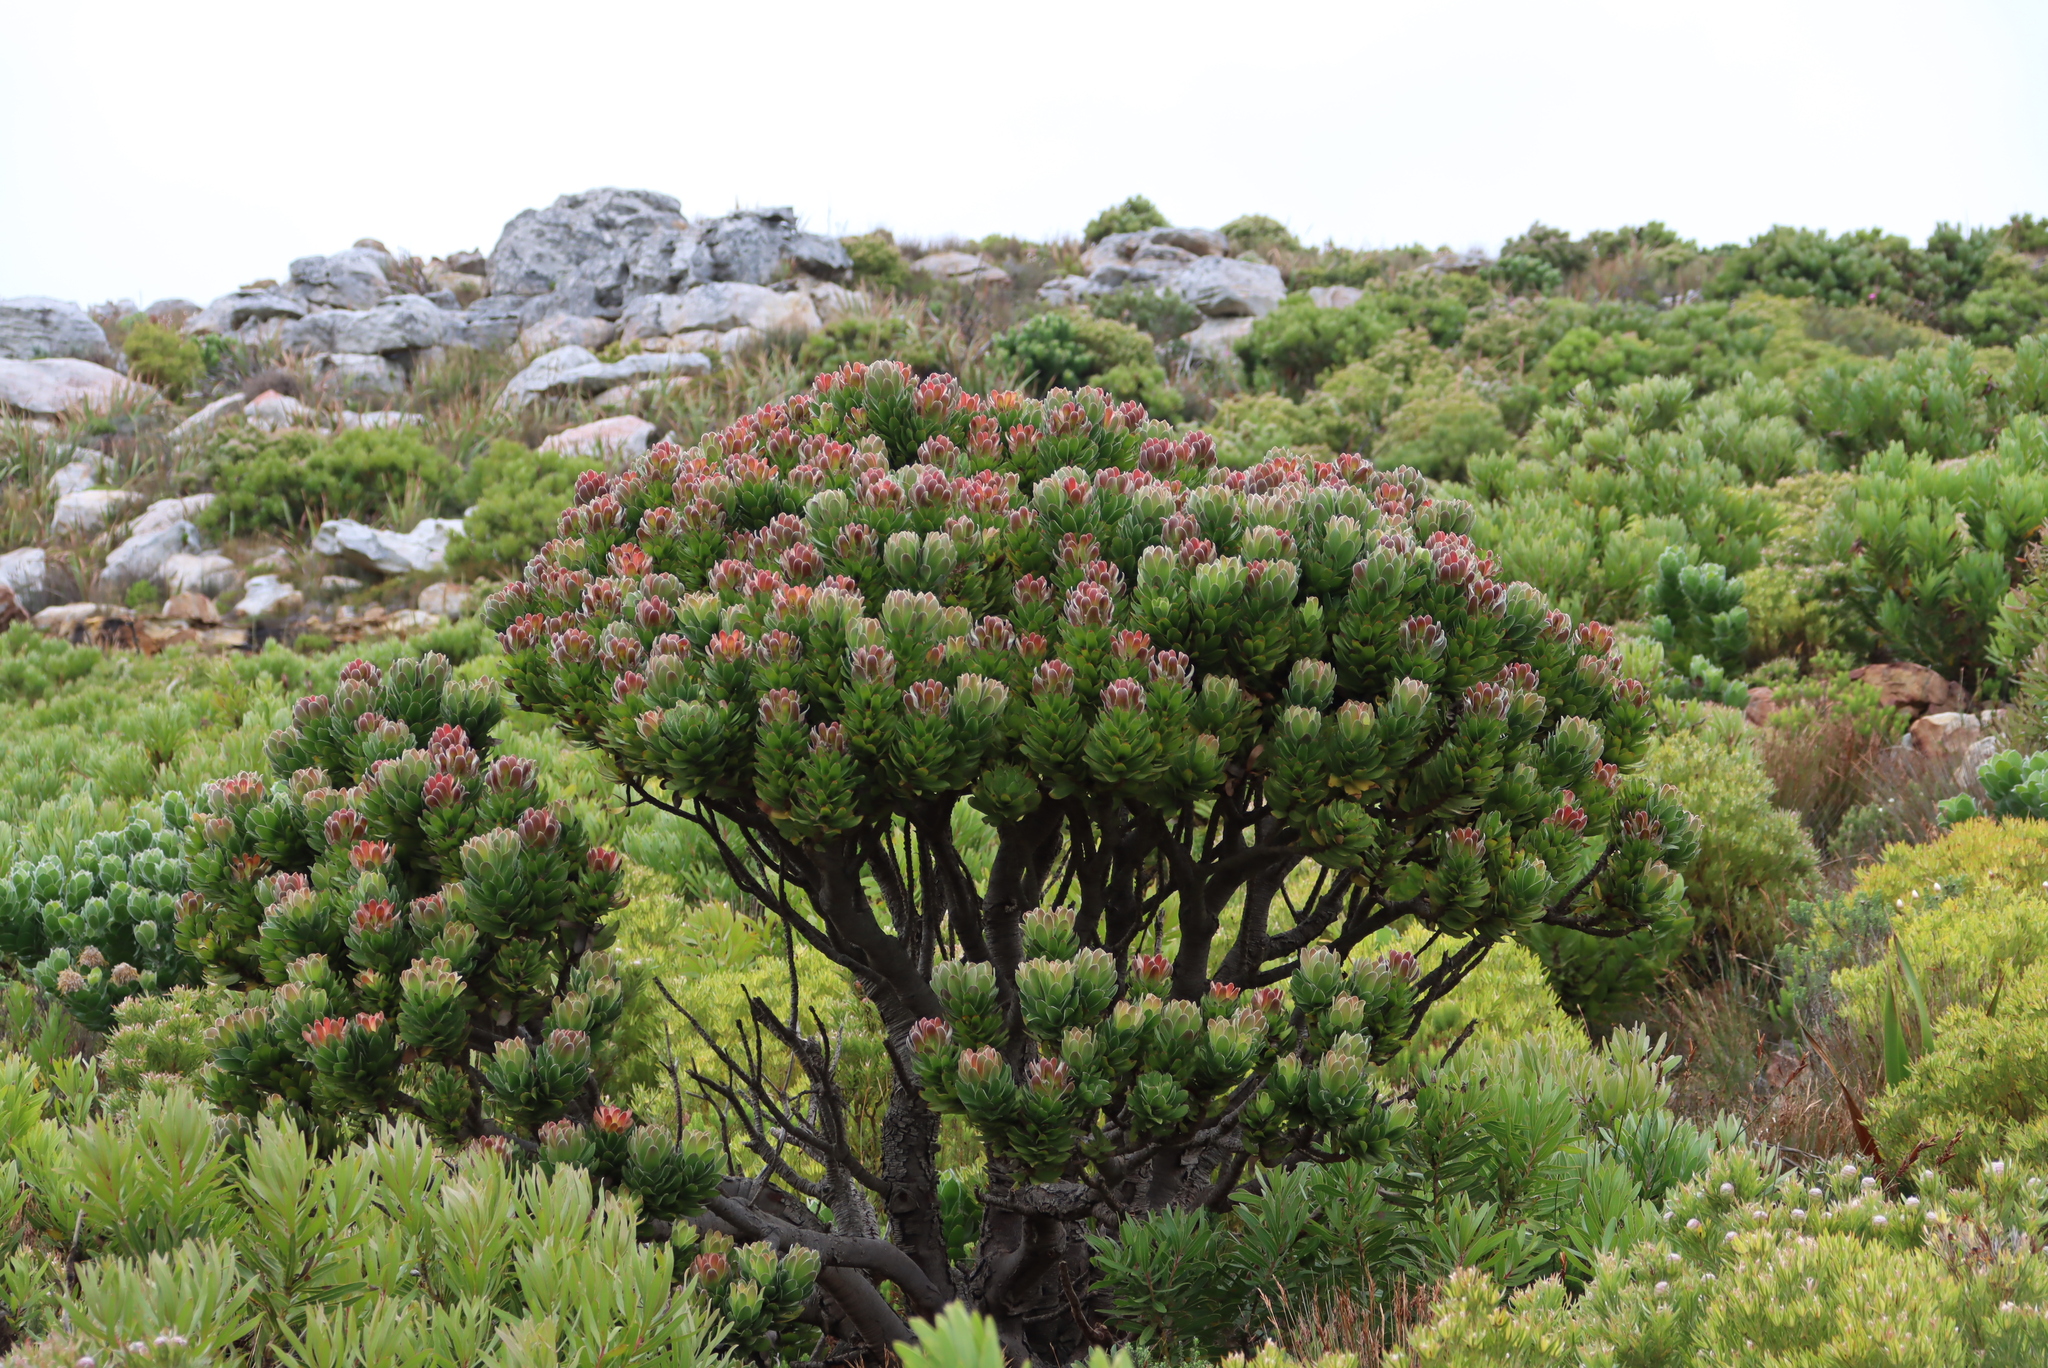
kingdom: Plantae
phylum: Tracheophyta
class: Magnoliopsida
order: Proteales
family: Proteaceae
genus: Mimetes
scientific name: Mimetes fimbriifolius
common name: Fringed bottlebrush
